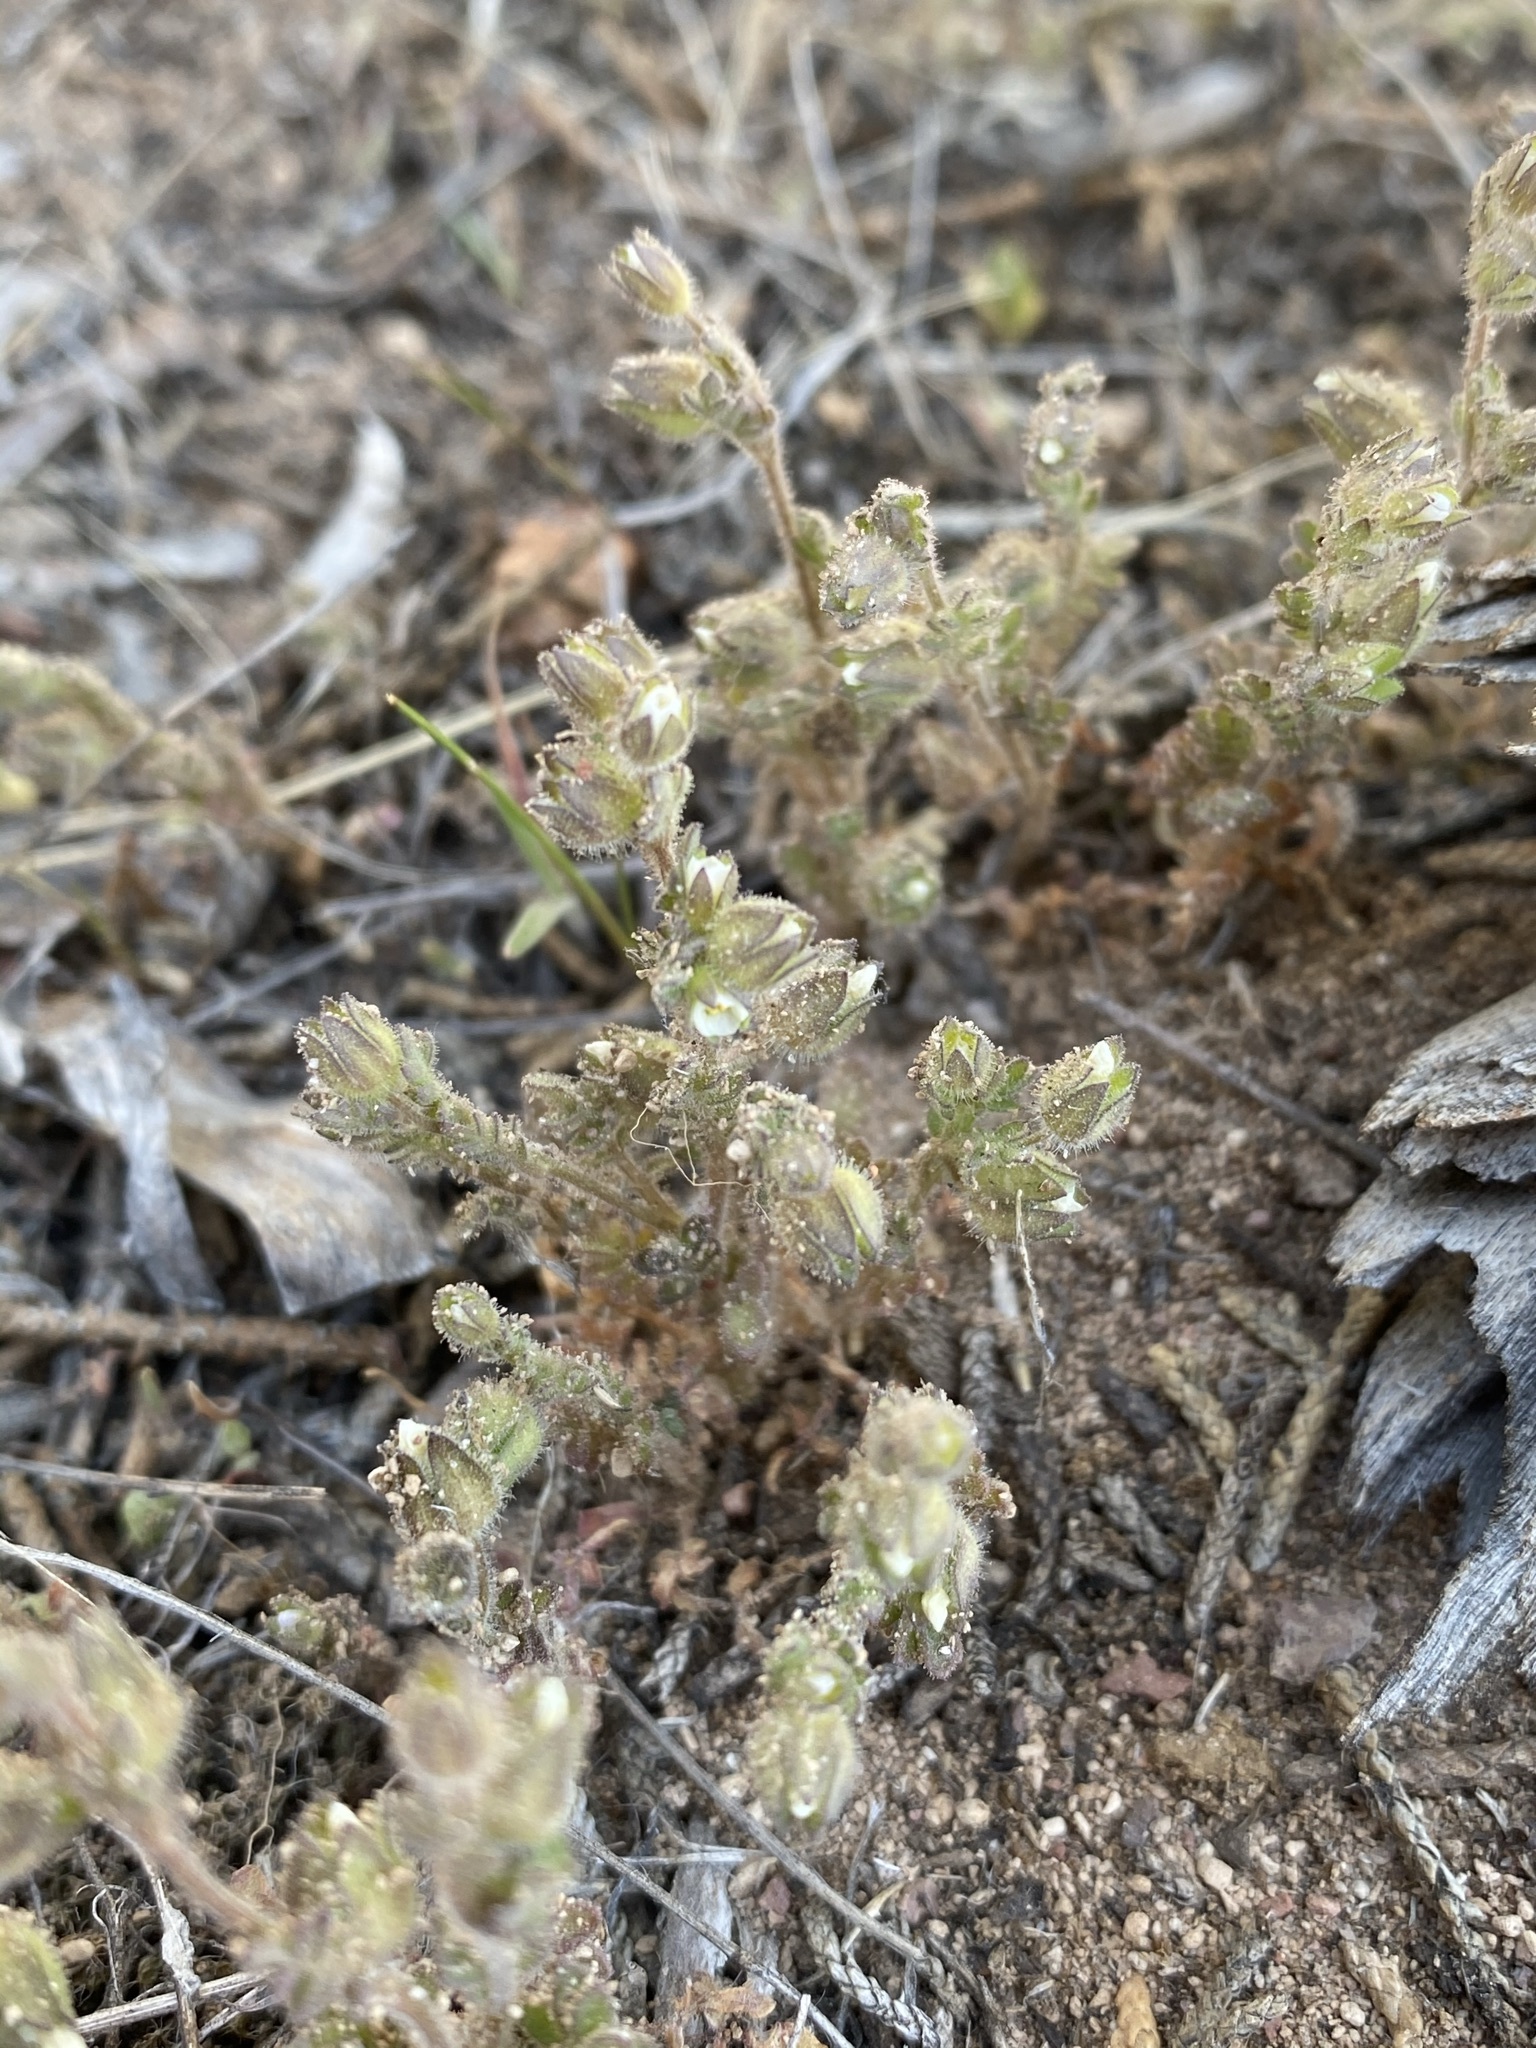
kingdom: Plantae
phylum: Tracheophyta
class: Magnoliopsida
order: Ericales
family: Polemoniaceae
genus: Polemonium
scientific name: Polemonium micranthum
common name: Annual jacob's-ladder
